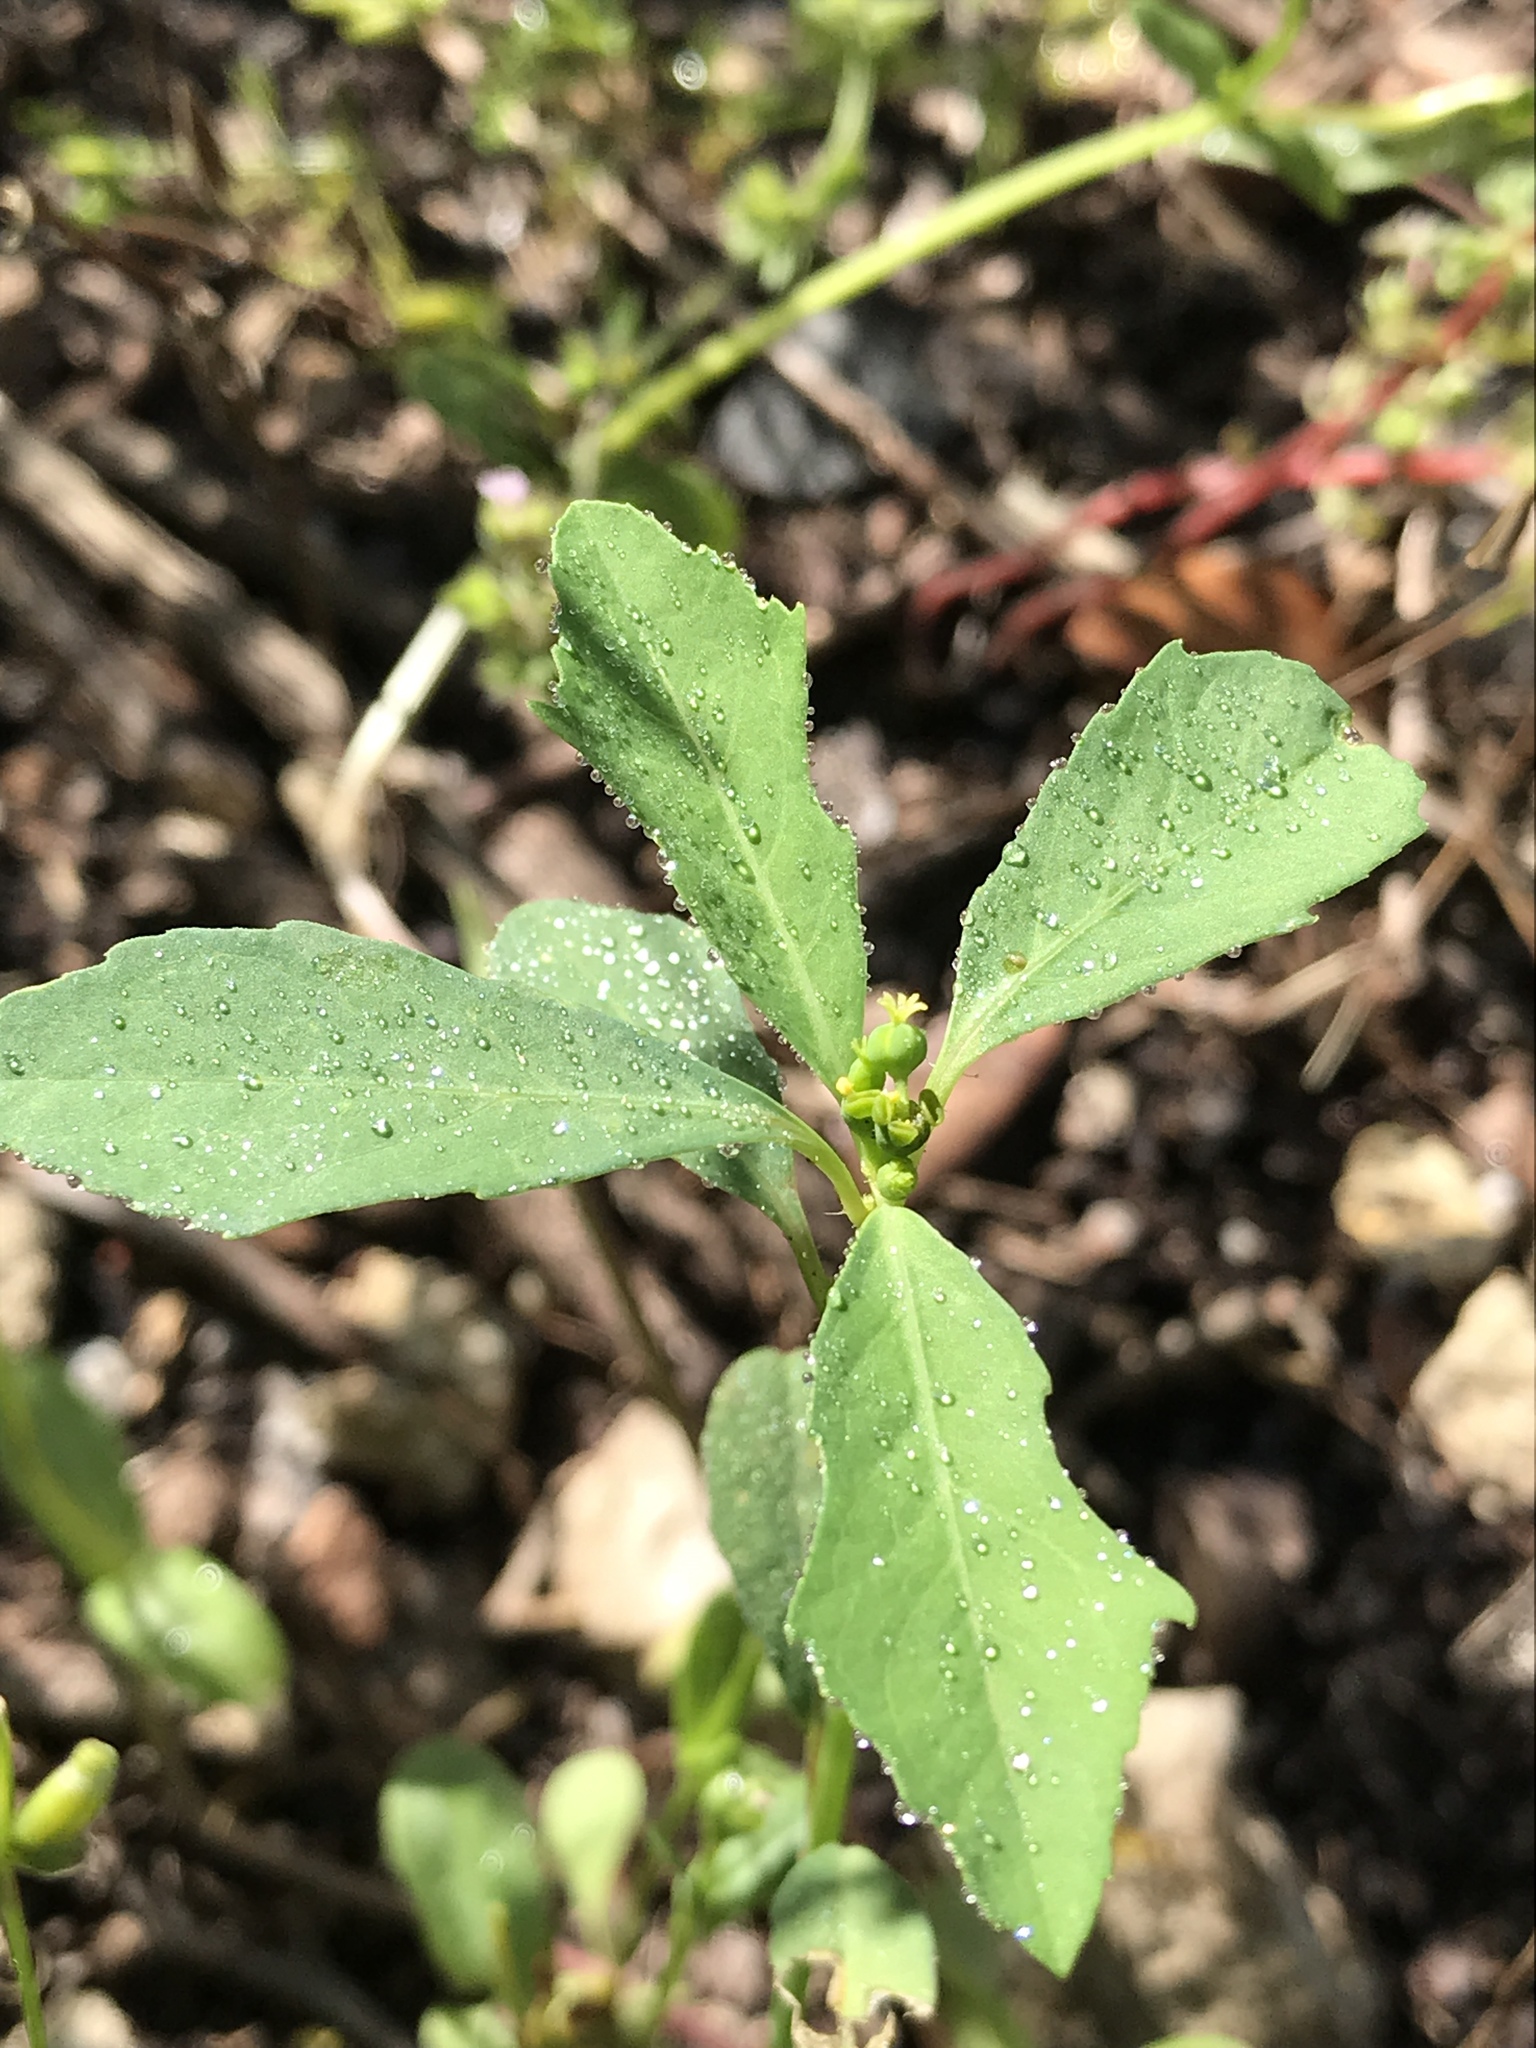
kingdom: Plantae
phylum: Tracheophyta
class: Magnoliopsida
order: Malpighiales
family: Euphorbiaceae
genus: Euphorbia
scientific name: Euphorbia heterophylla
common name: Mexican fireplant
